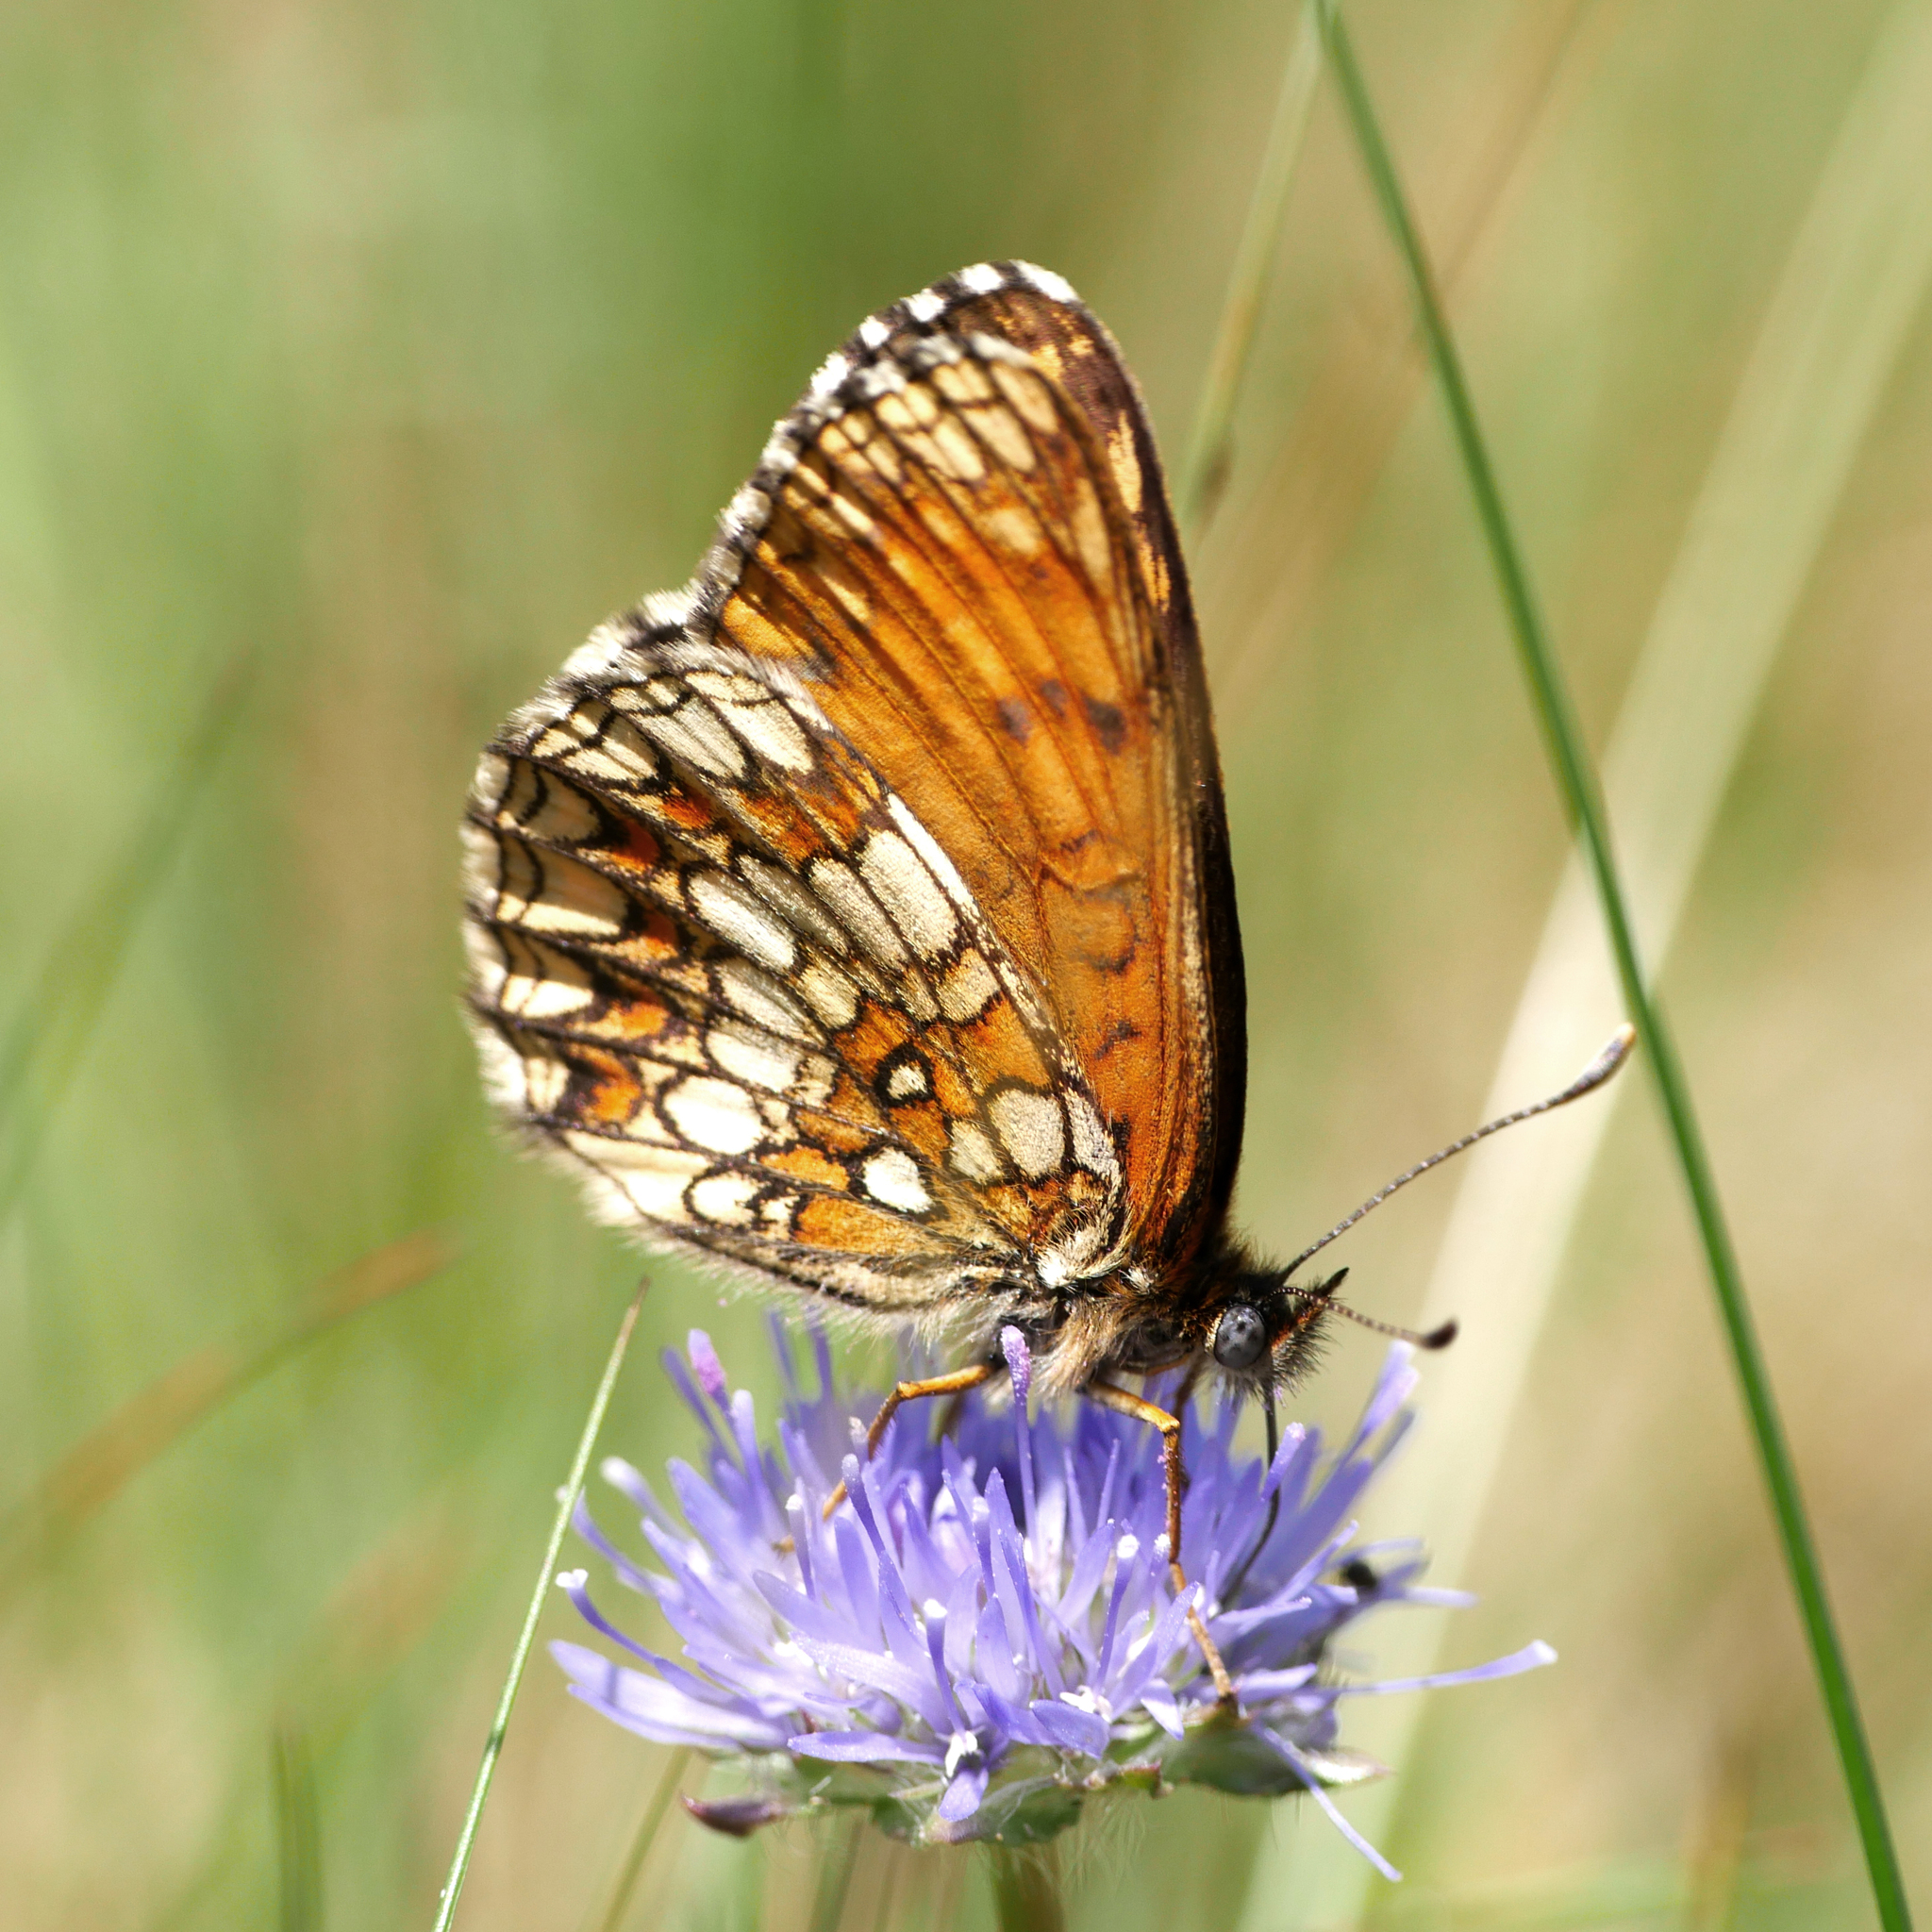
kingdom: Animalia
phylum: Arthropoda
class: Insecta
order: Lepidoptera
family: Nymphalidae
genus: Melitaea
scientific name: Melitaea athalia
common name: Heath fritillary
